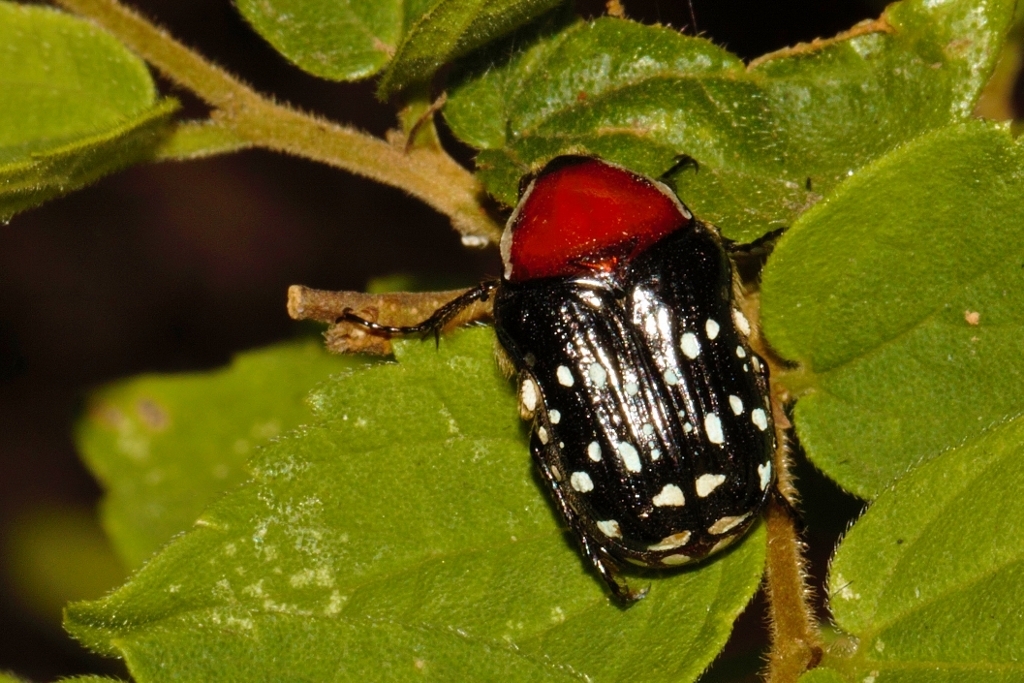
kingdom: Animalia
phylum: Arthropoda
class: Insecta
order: Coleoptera
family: Scarabaeidae
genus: Clinteroides
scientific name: Clinteroides permutans
